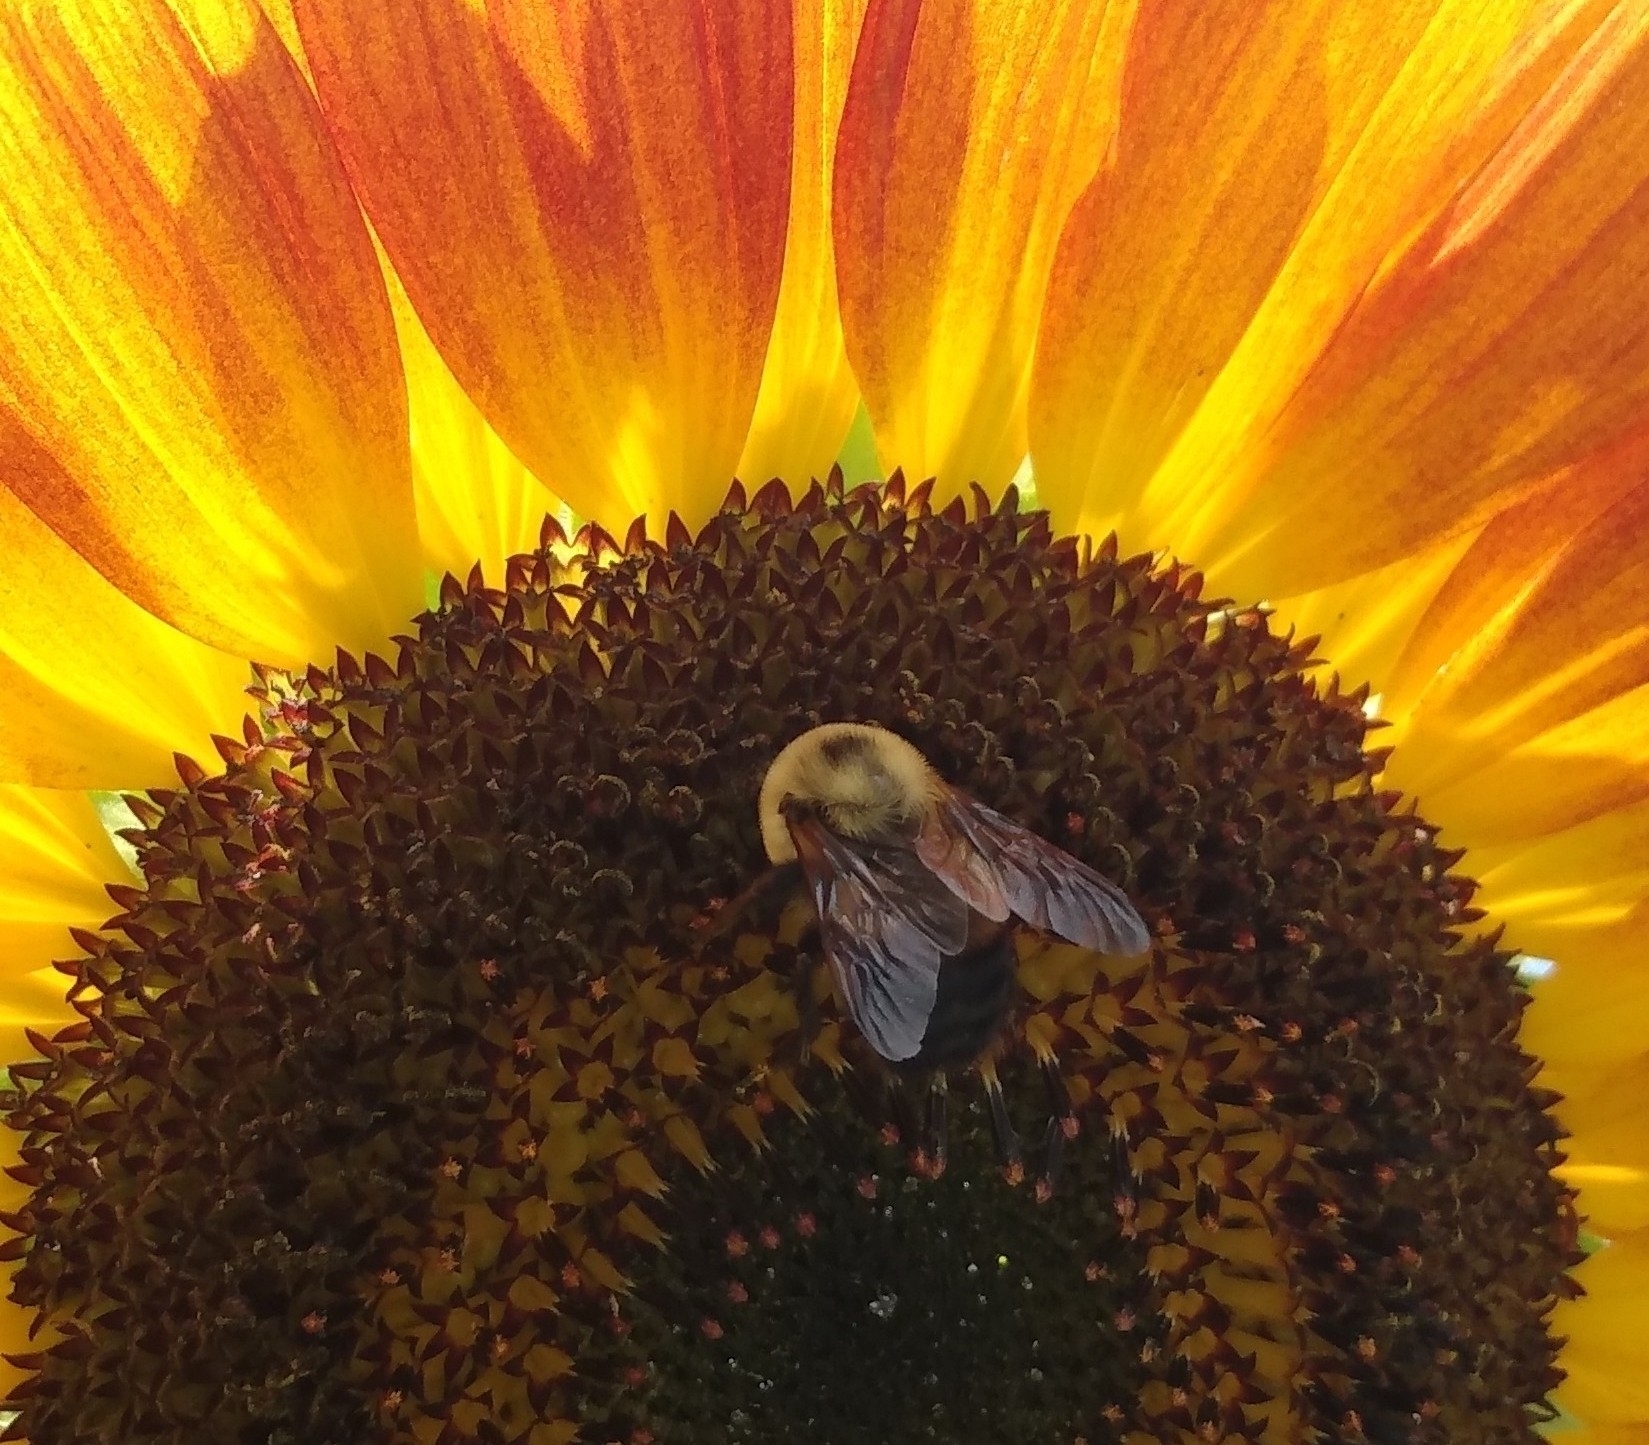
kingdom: Animalia
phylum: Arthropoda
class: Insecta
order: Hymenoptera
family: Apidae
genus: Bombus
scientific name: Bombus griseocollis
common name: Brown-belted bumble bee
